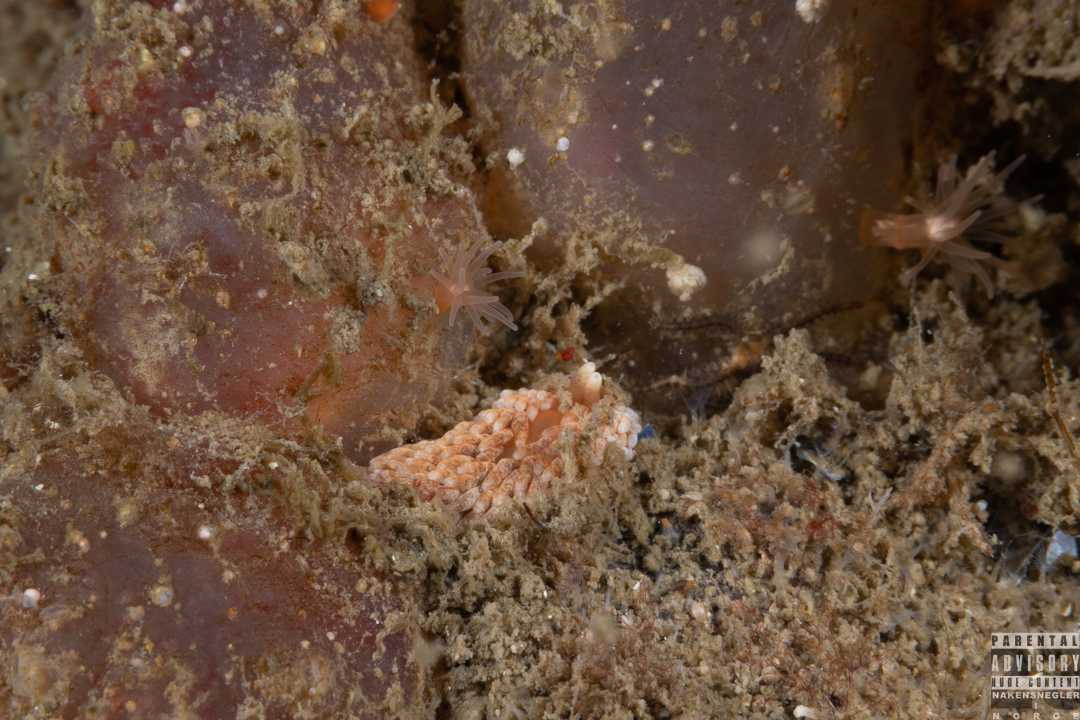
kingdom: Animalia
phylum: Mollusca
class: Gastropoda
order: Nudibranchia
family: Aeolidiidae
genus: Aeolidiella
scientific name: Aeolidiella glauca
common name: Orange-brown aeolid
